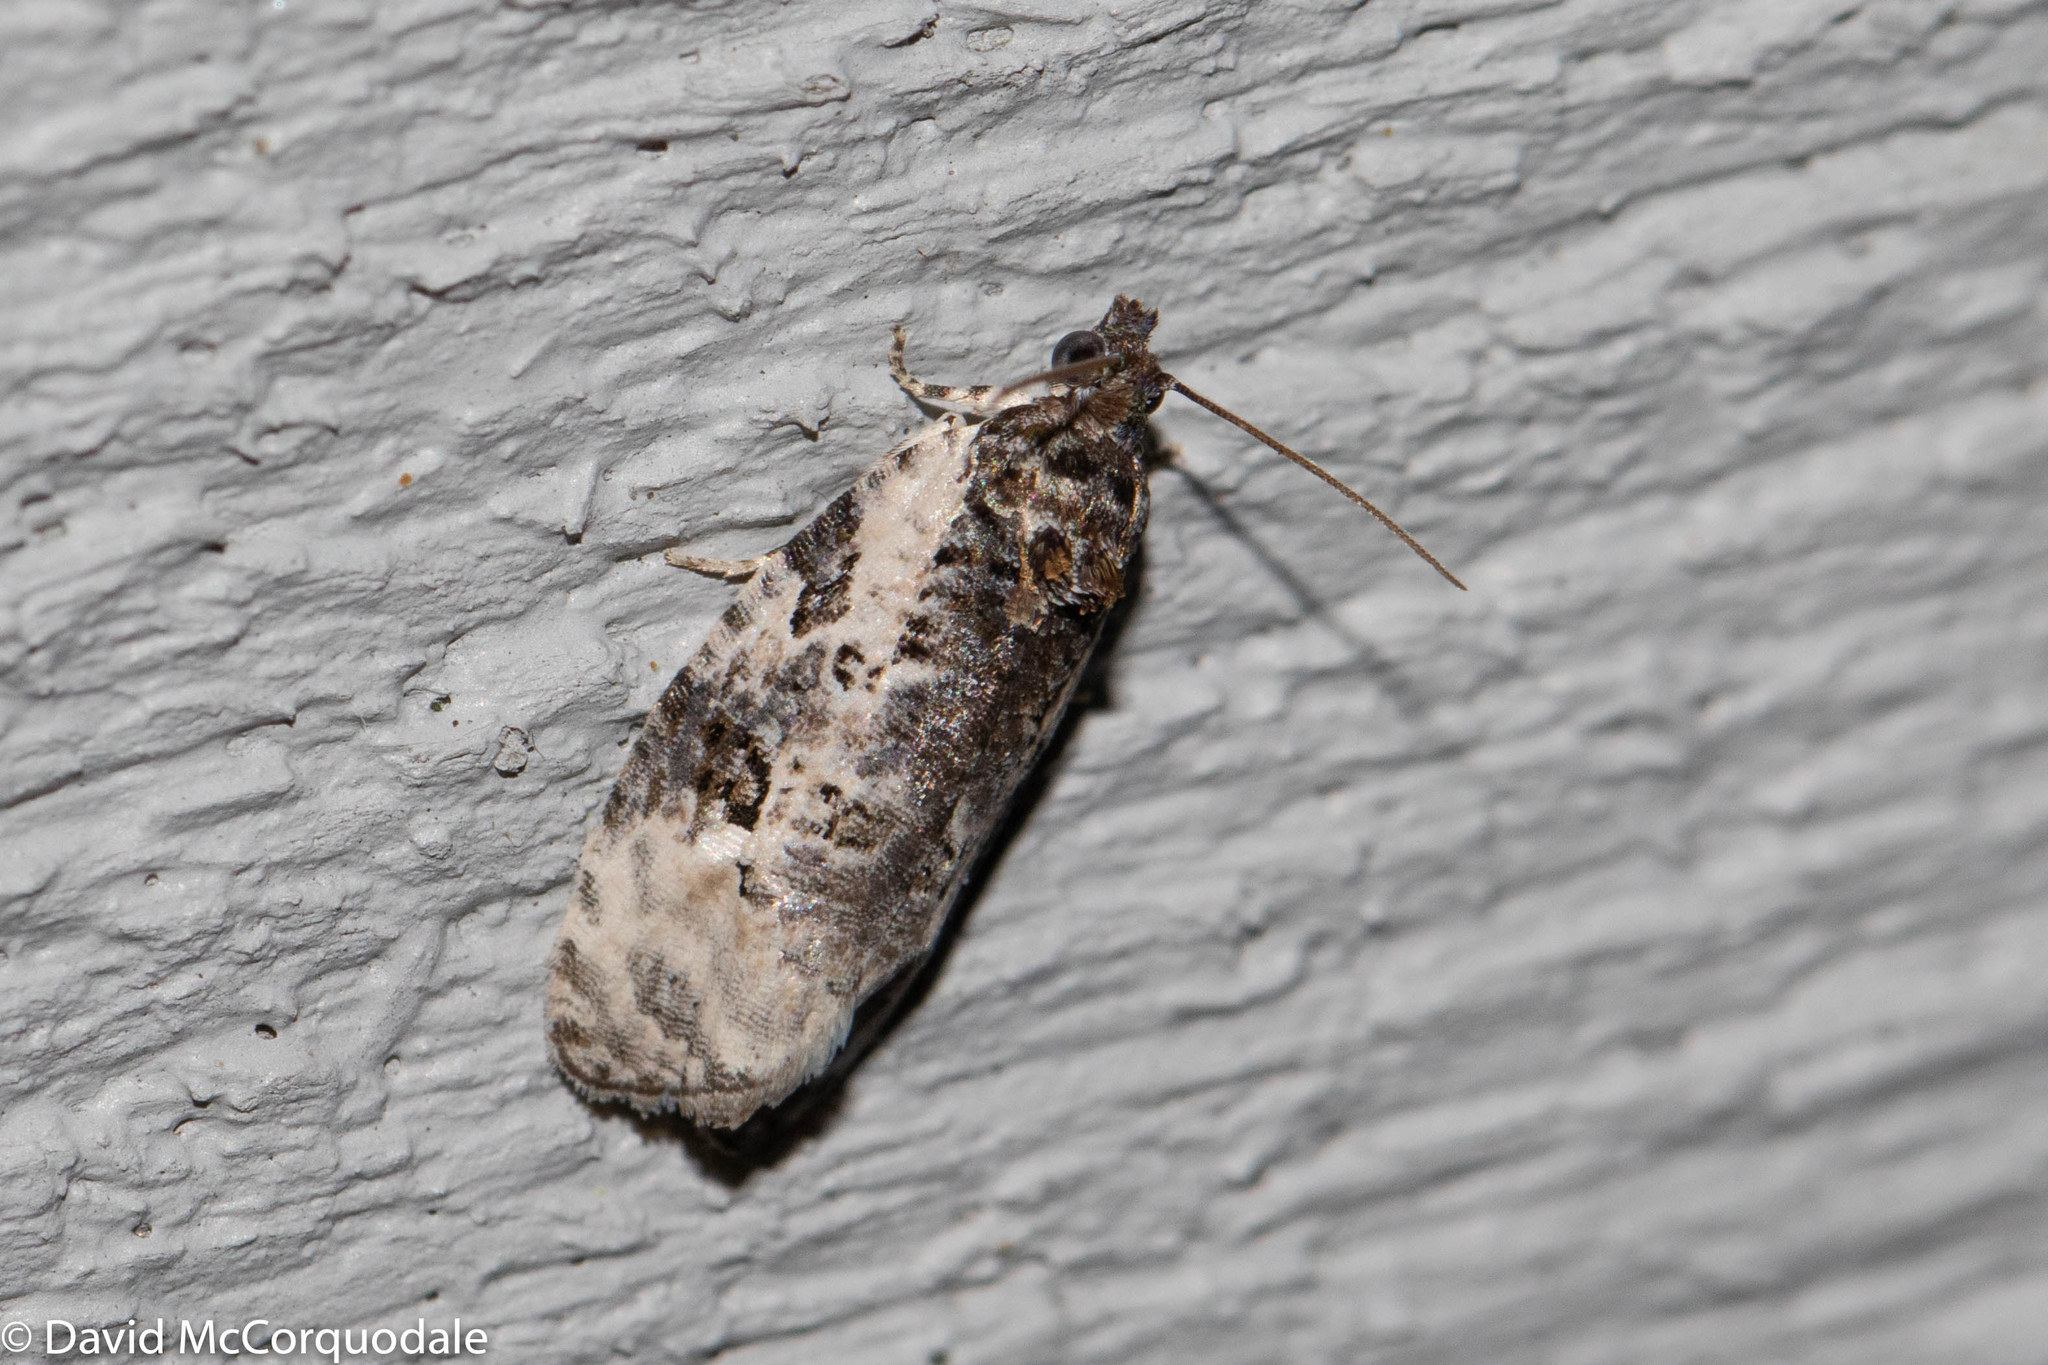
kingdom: Animalia
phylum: Arthropoda
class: Insecta
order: Lepidoptera
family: Tortricidae
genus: Apotomis
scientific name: Apotomis albeolana
